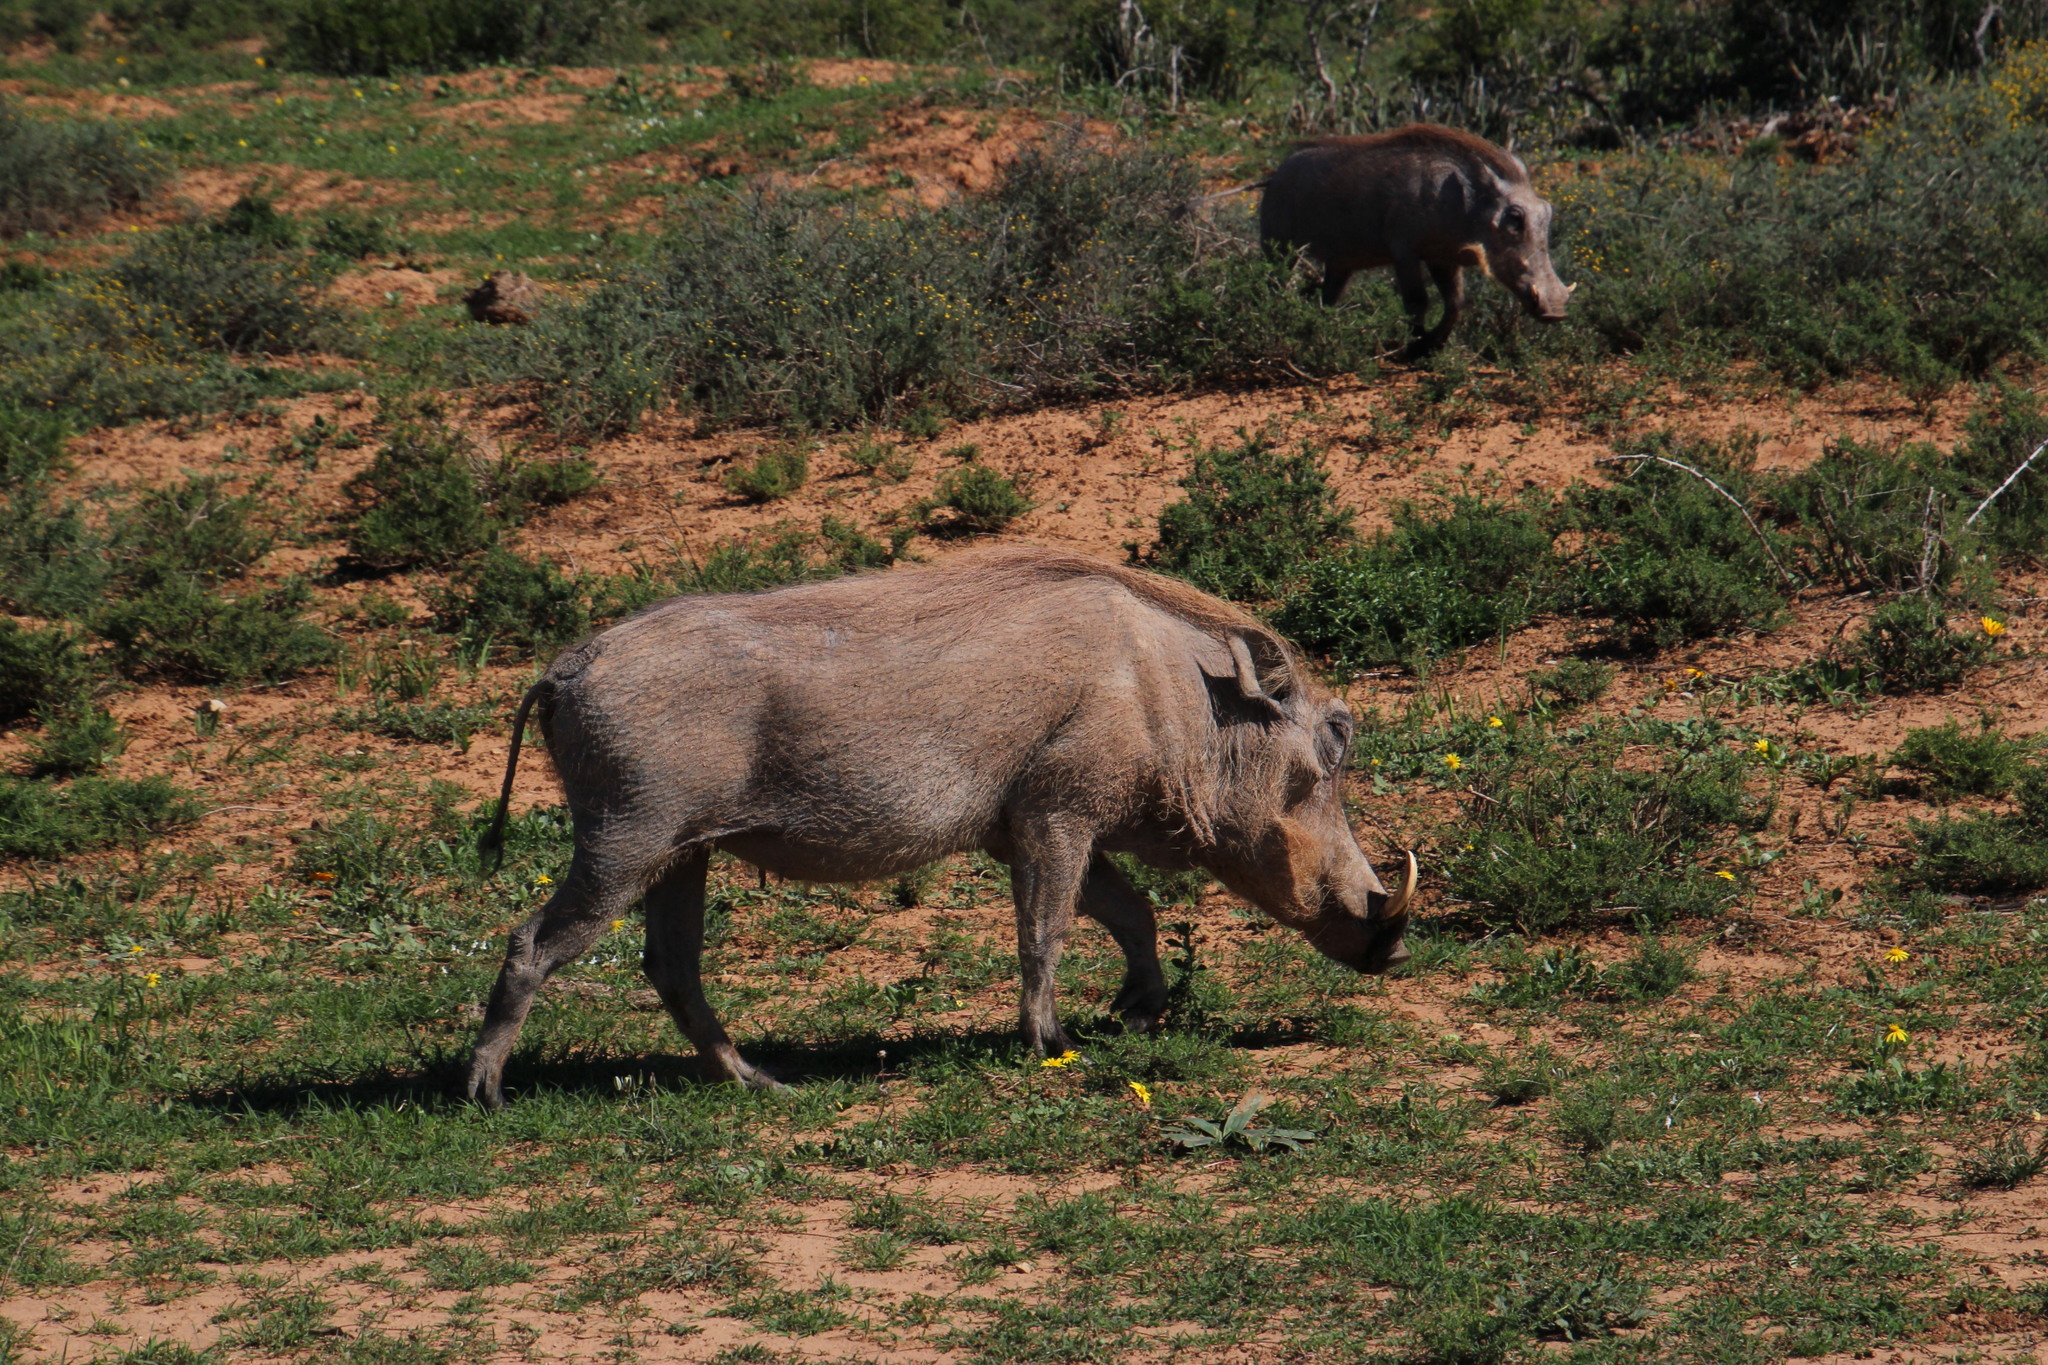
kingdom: Animalia
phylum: Chordata
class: Mammalia
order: Artiodactyla
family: Suidae
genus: Phacochoerus
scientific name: Phacochoerus africanus
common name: Common warthog
